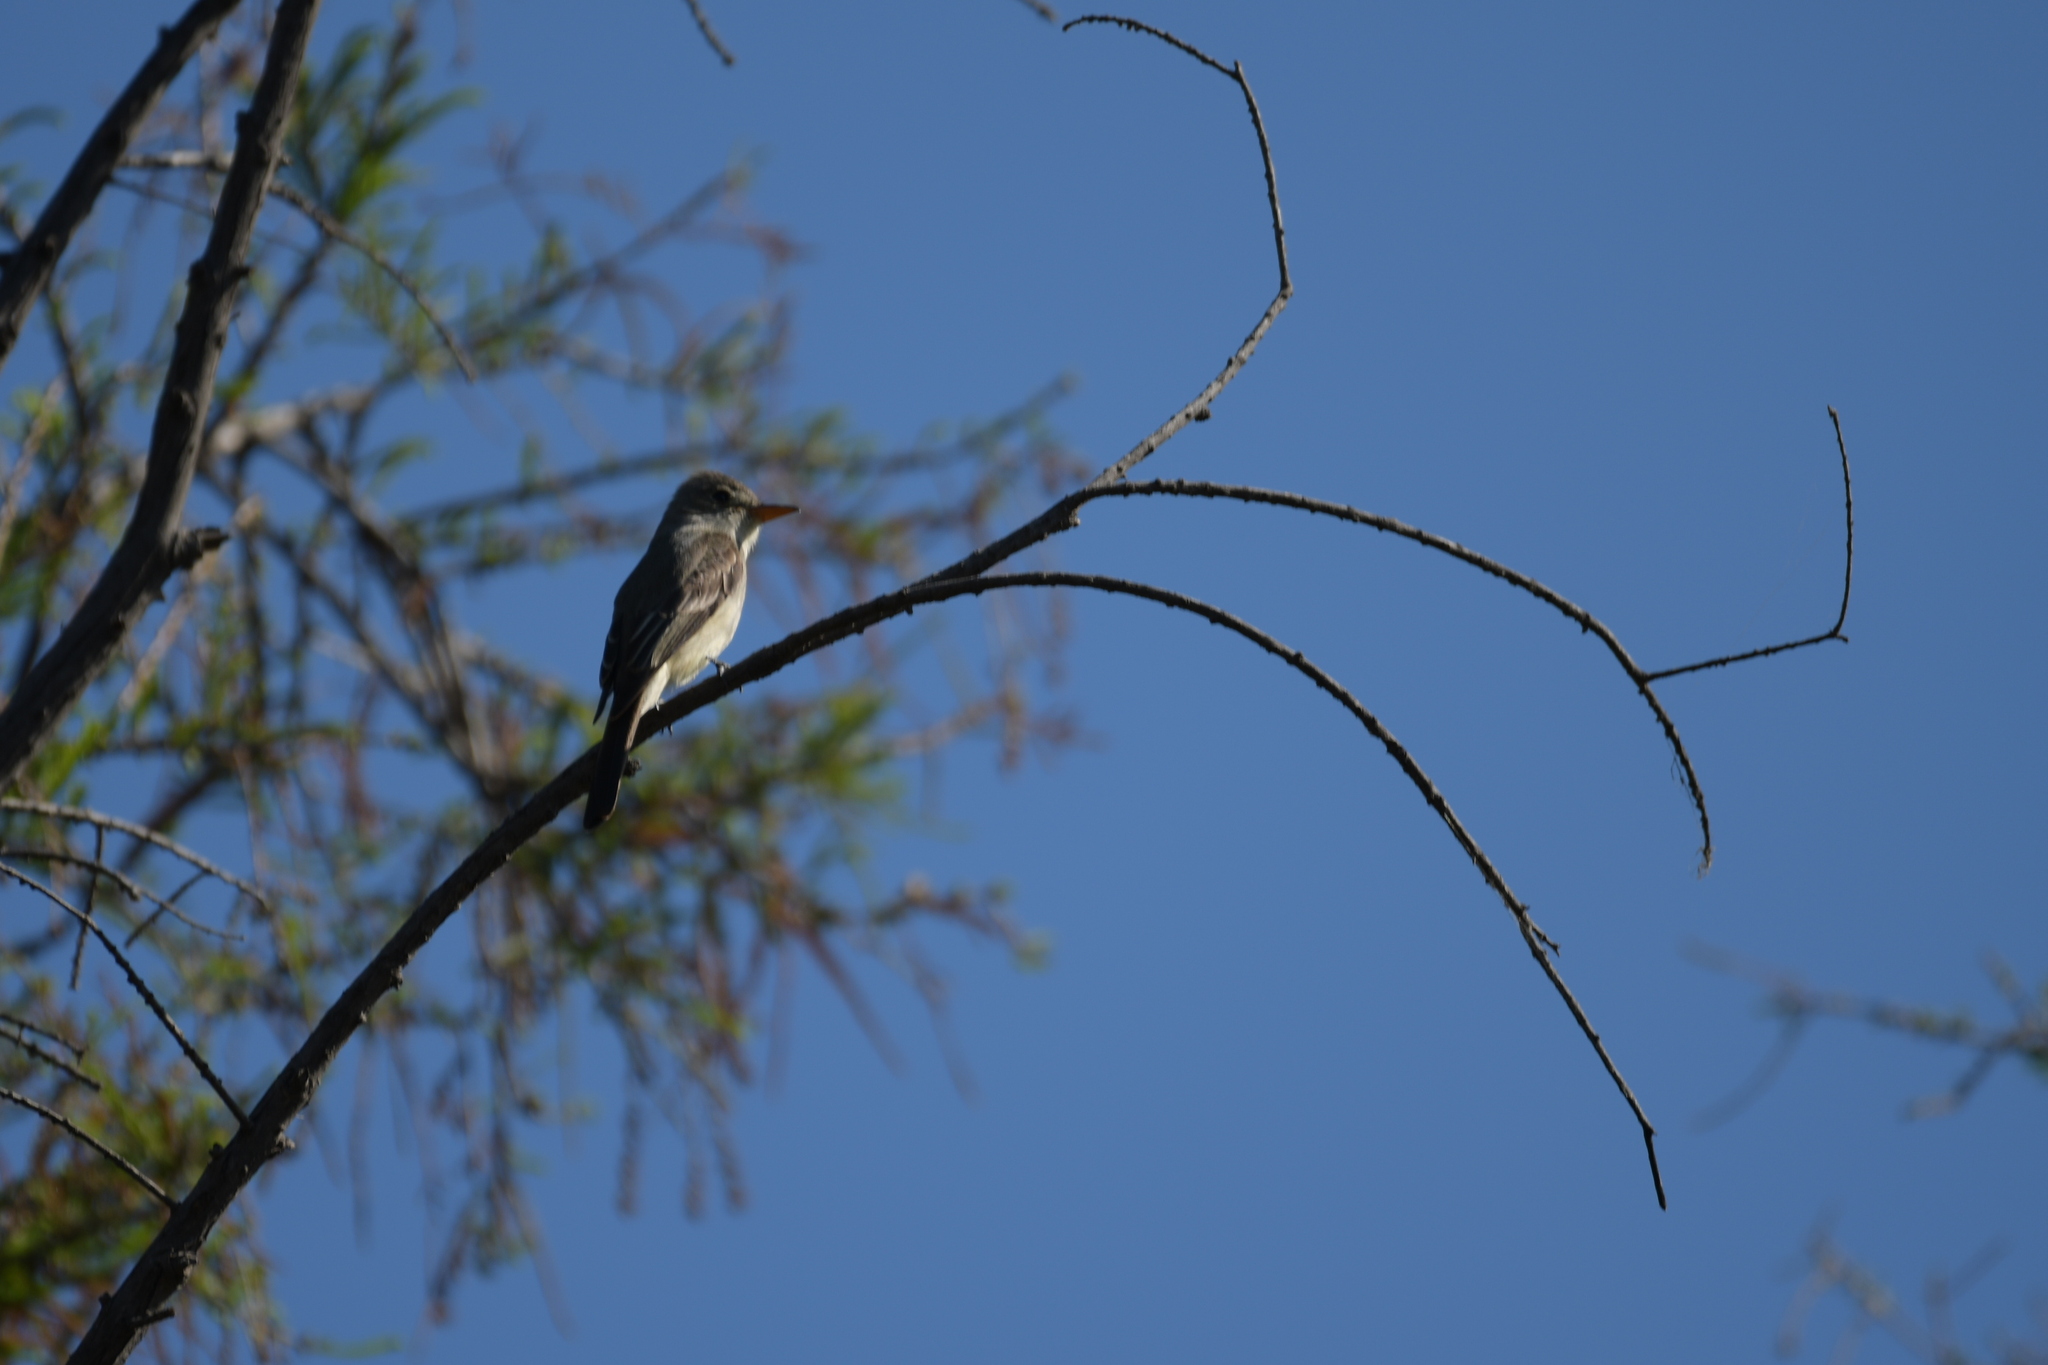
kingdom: Animalia
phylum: Chordata
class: Aves
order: Passeriformes
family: Tyrannidae
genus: Contopus
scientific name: Contopus pertinax
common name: Greater pewee
